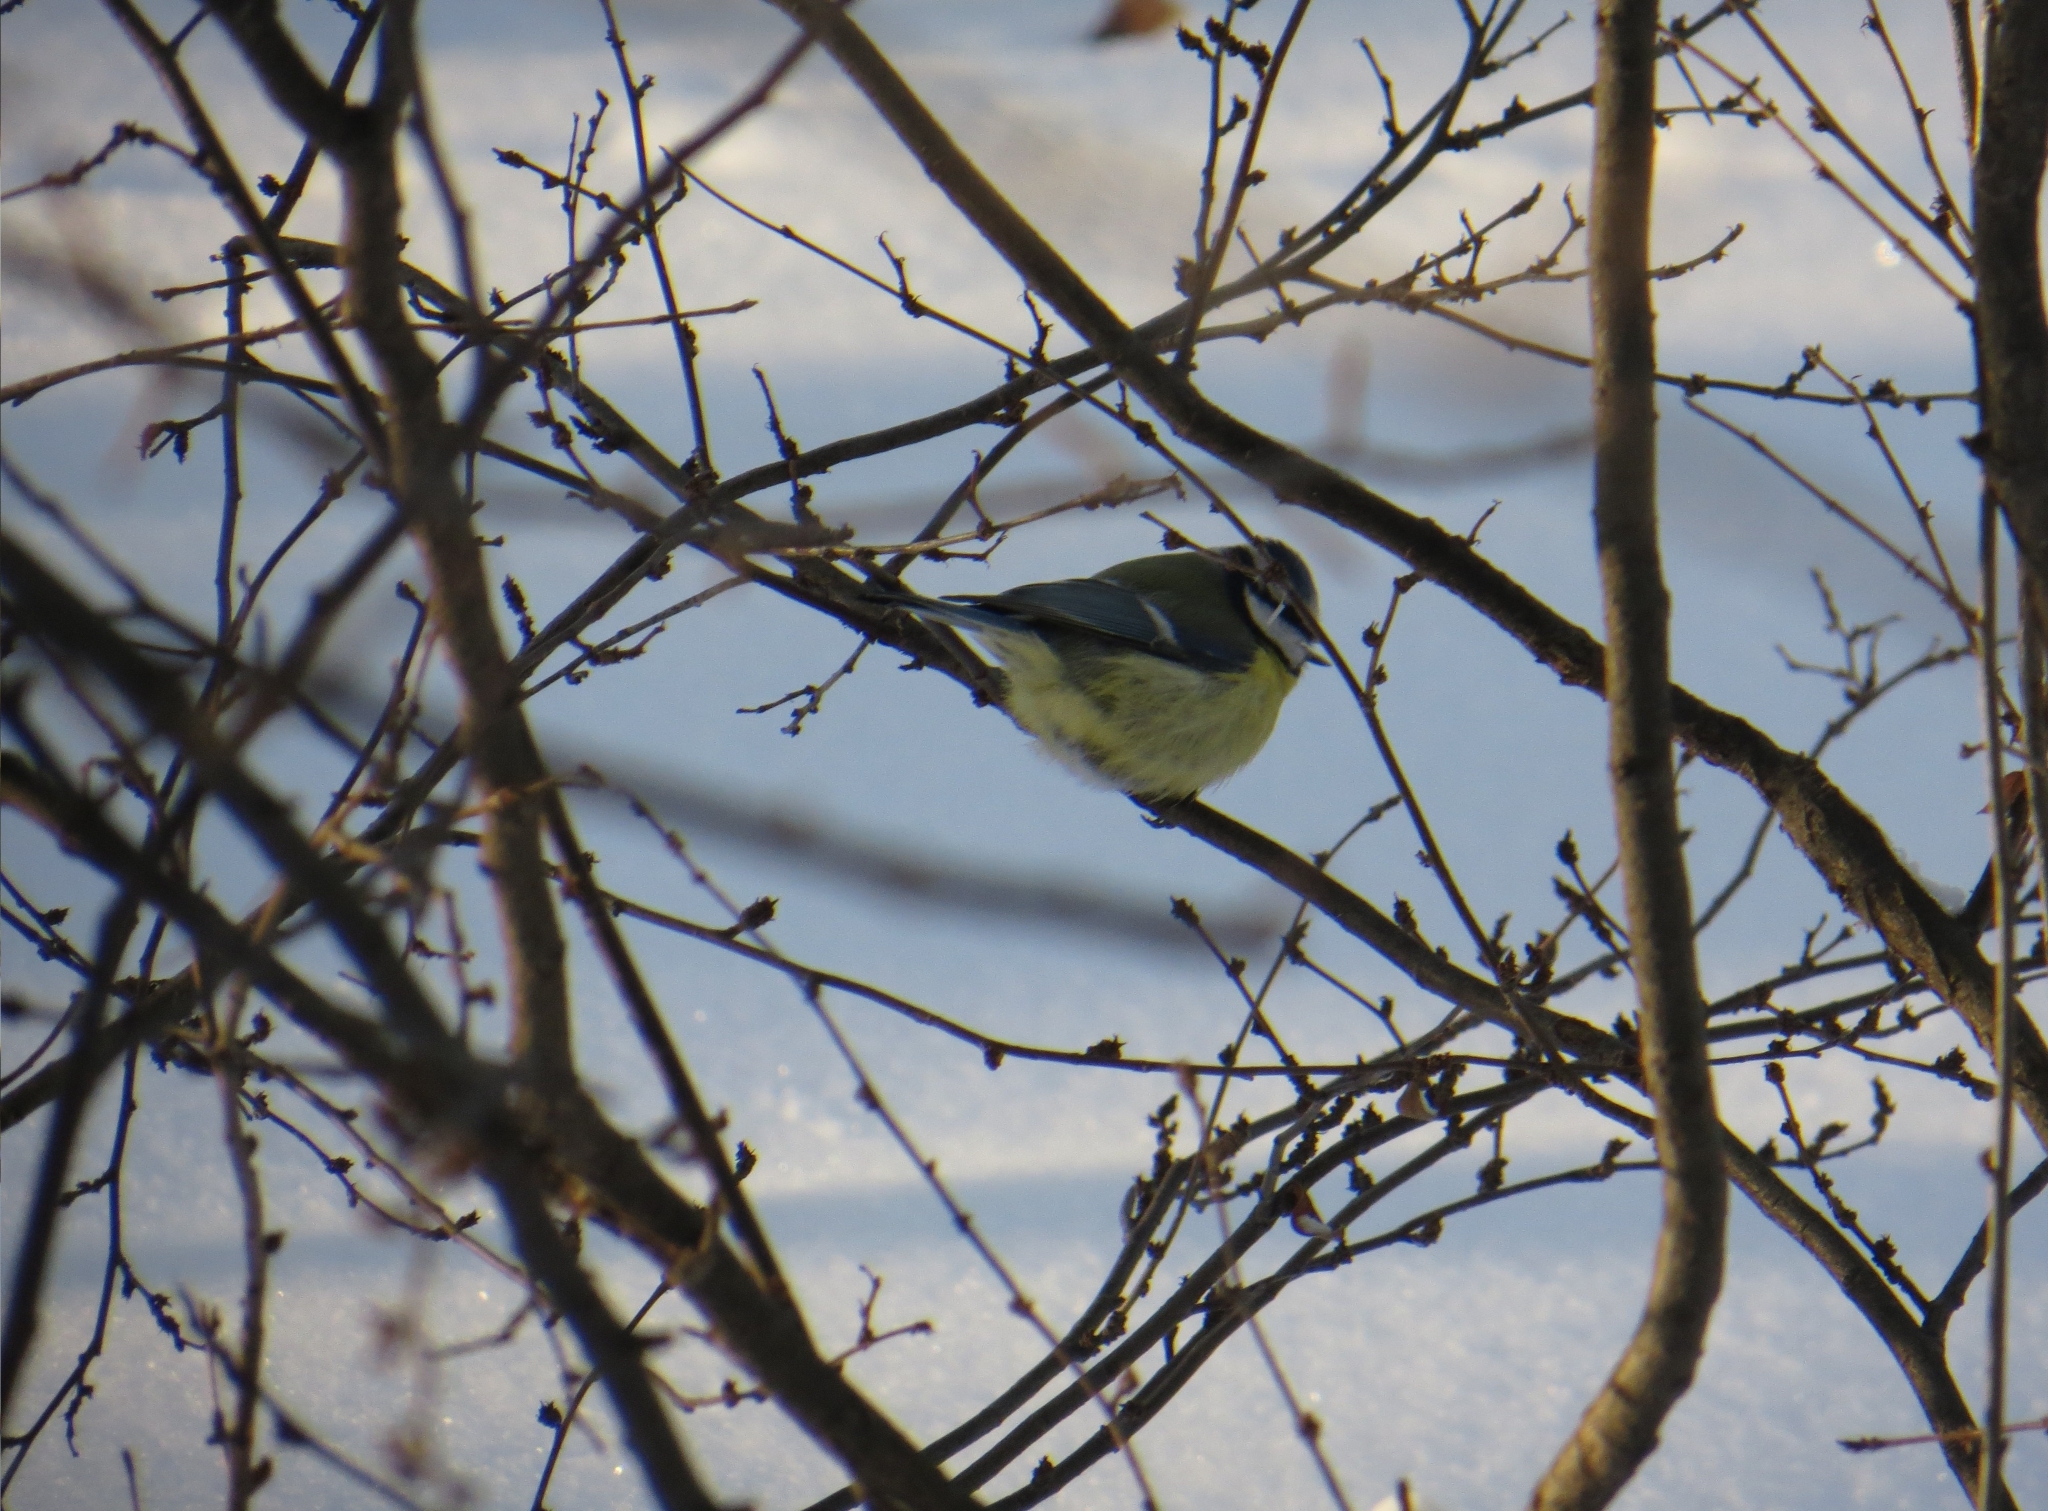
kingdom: Animalia
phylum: Chordata
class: Aves
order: Passeriformes
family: Paridae
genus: Cyanistes
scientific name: Cyanistes caeruleus
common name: Eurasian blue tit
